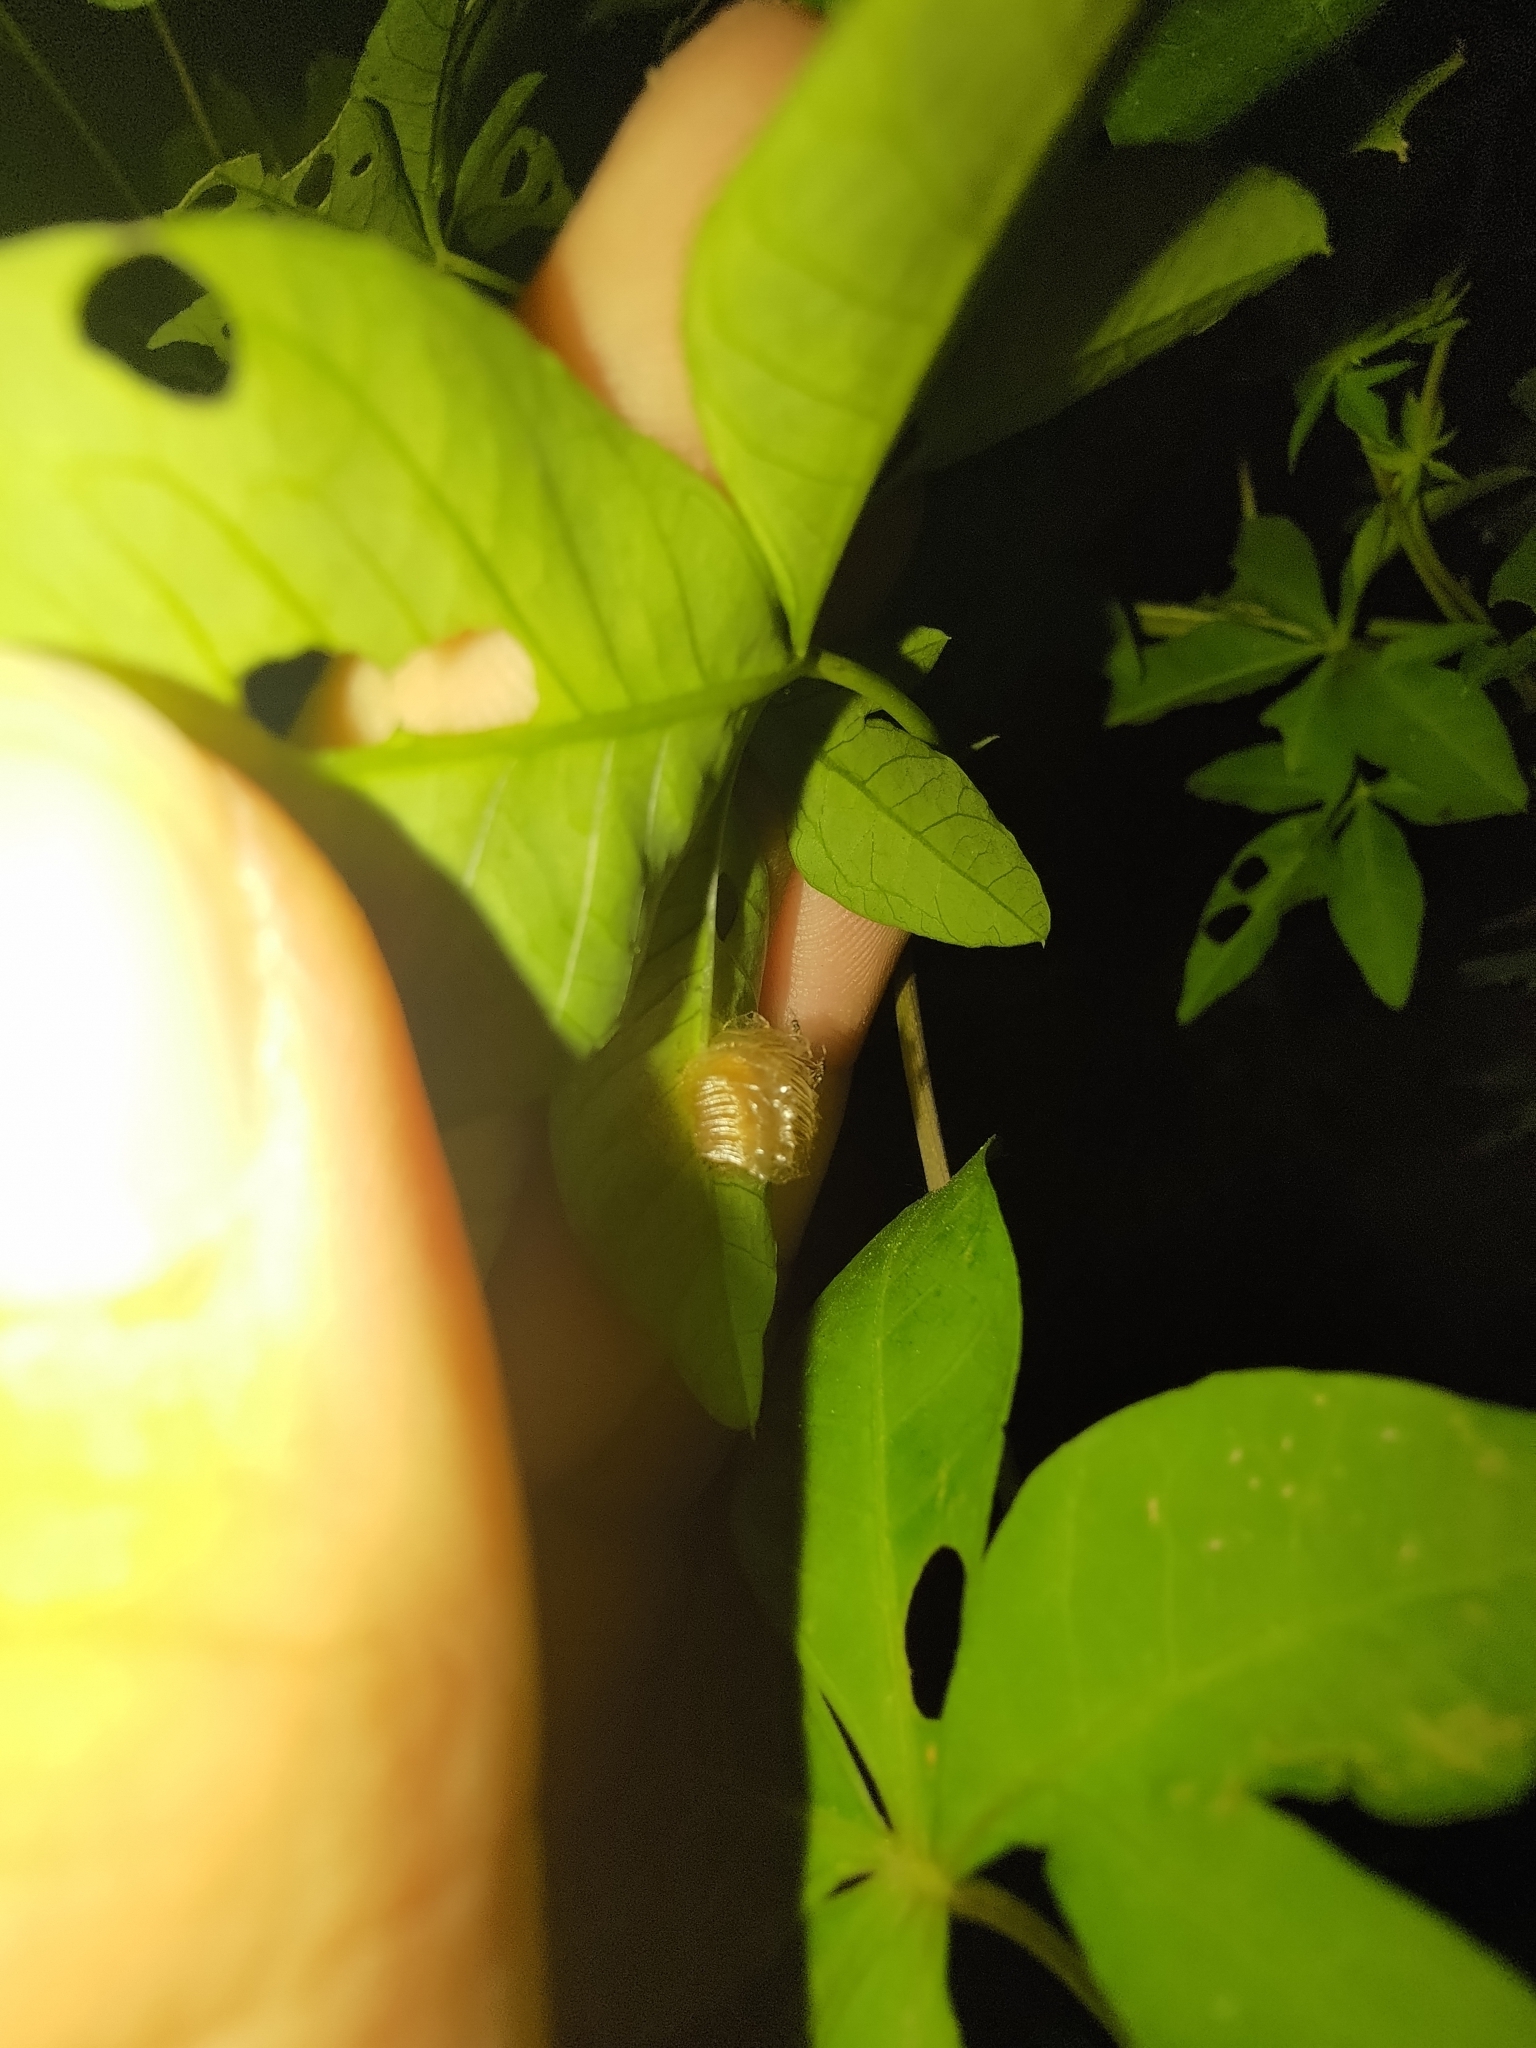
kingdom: Animalia
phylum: Arthropoda
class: Insecta
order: Coleoptera
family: Chrysomelidae
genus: Aspidimorpha
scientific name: Aspidimorpha miliaris
